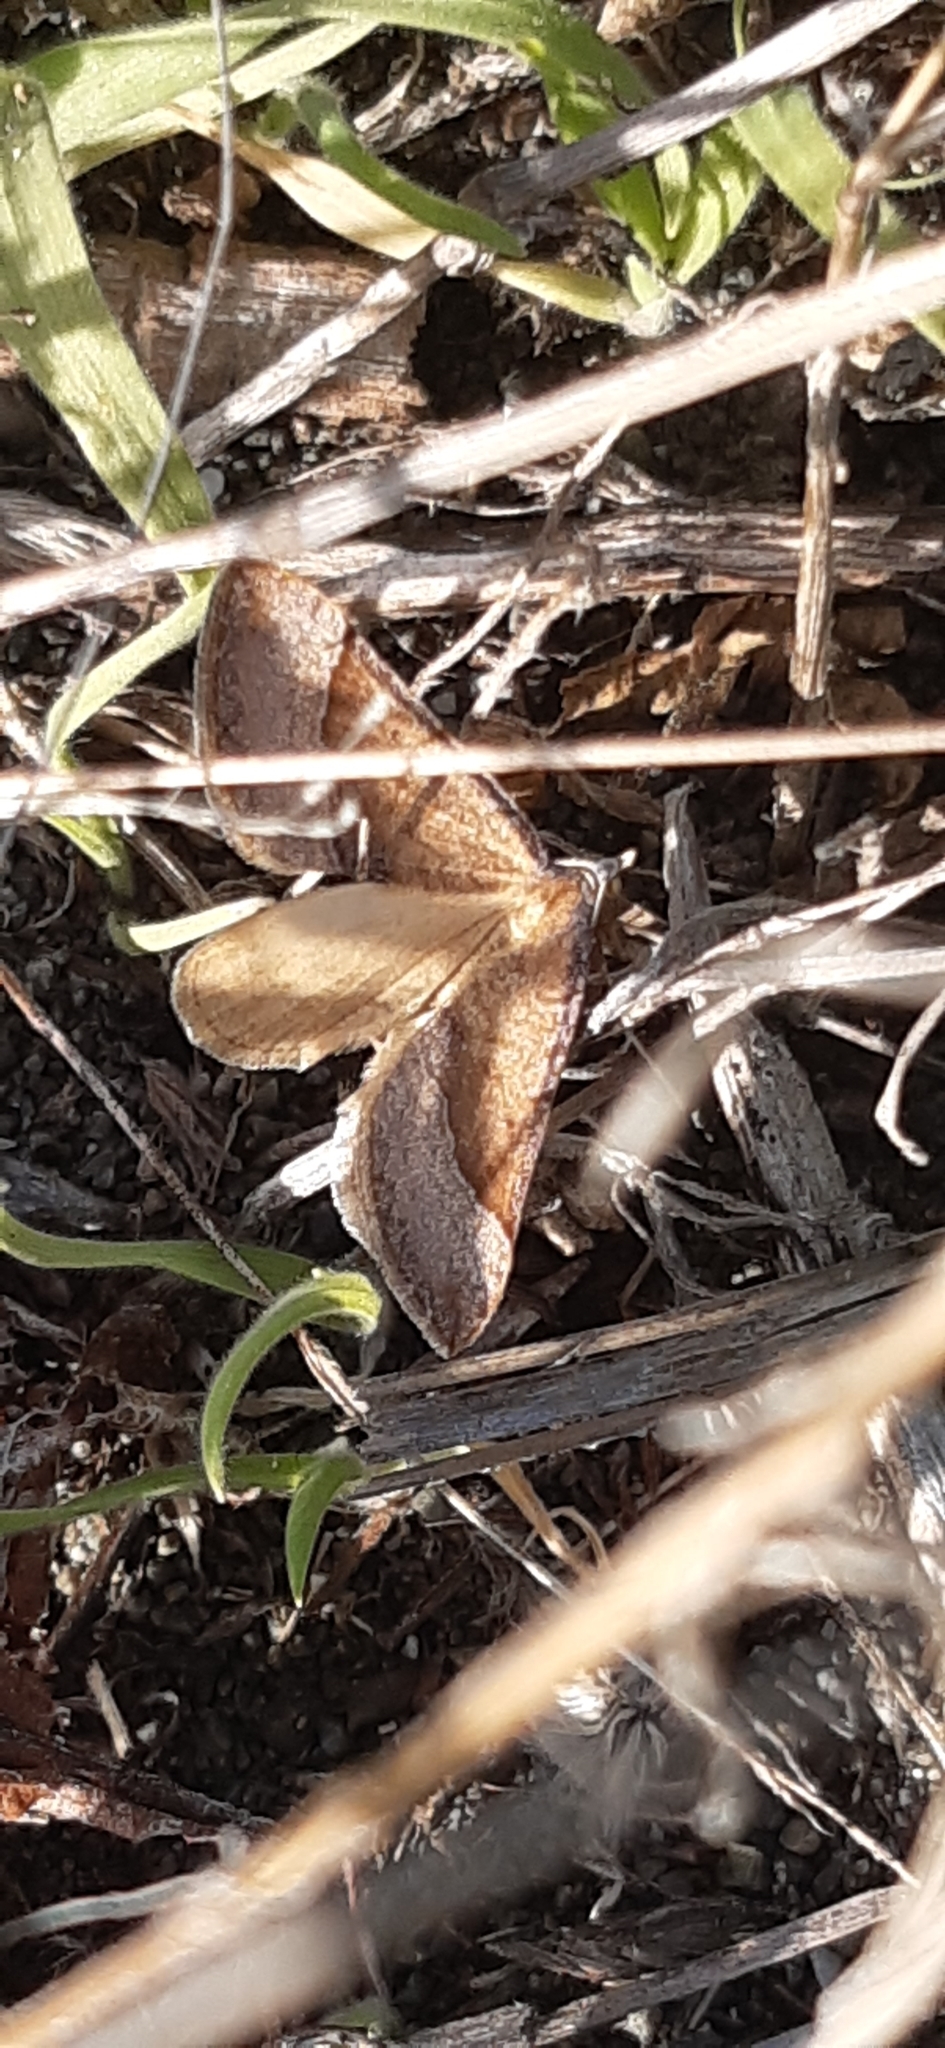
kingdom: Animalia
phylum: Arthropoda
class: Insecta
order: Lepidoptera
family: Geometridae
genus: Anachloris
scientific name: Anachloris subochraria
